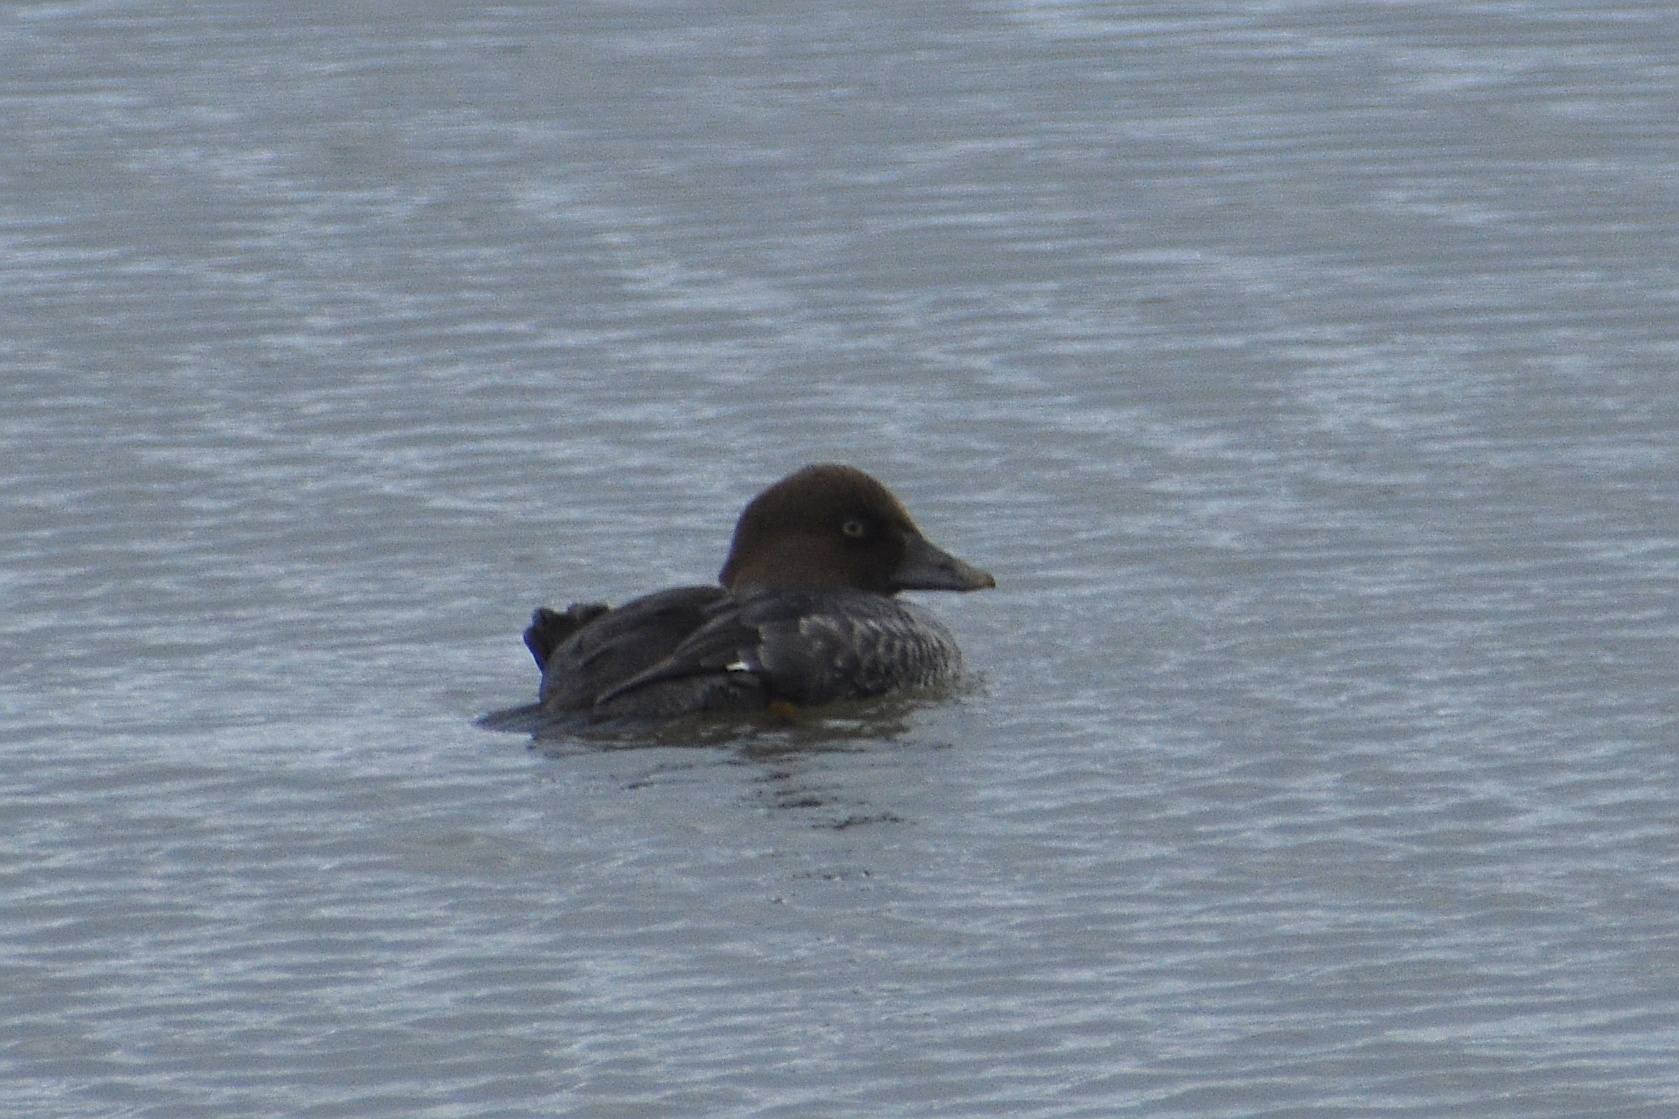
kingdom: Animalia
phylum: Chordata
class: Aves
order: Anseriformes
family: Anatidae
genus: Bucephala
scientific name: Bucephala clangula
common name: Common goldeneye
